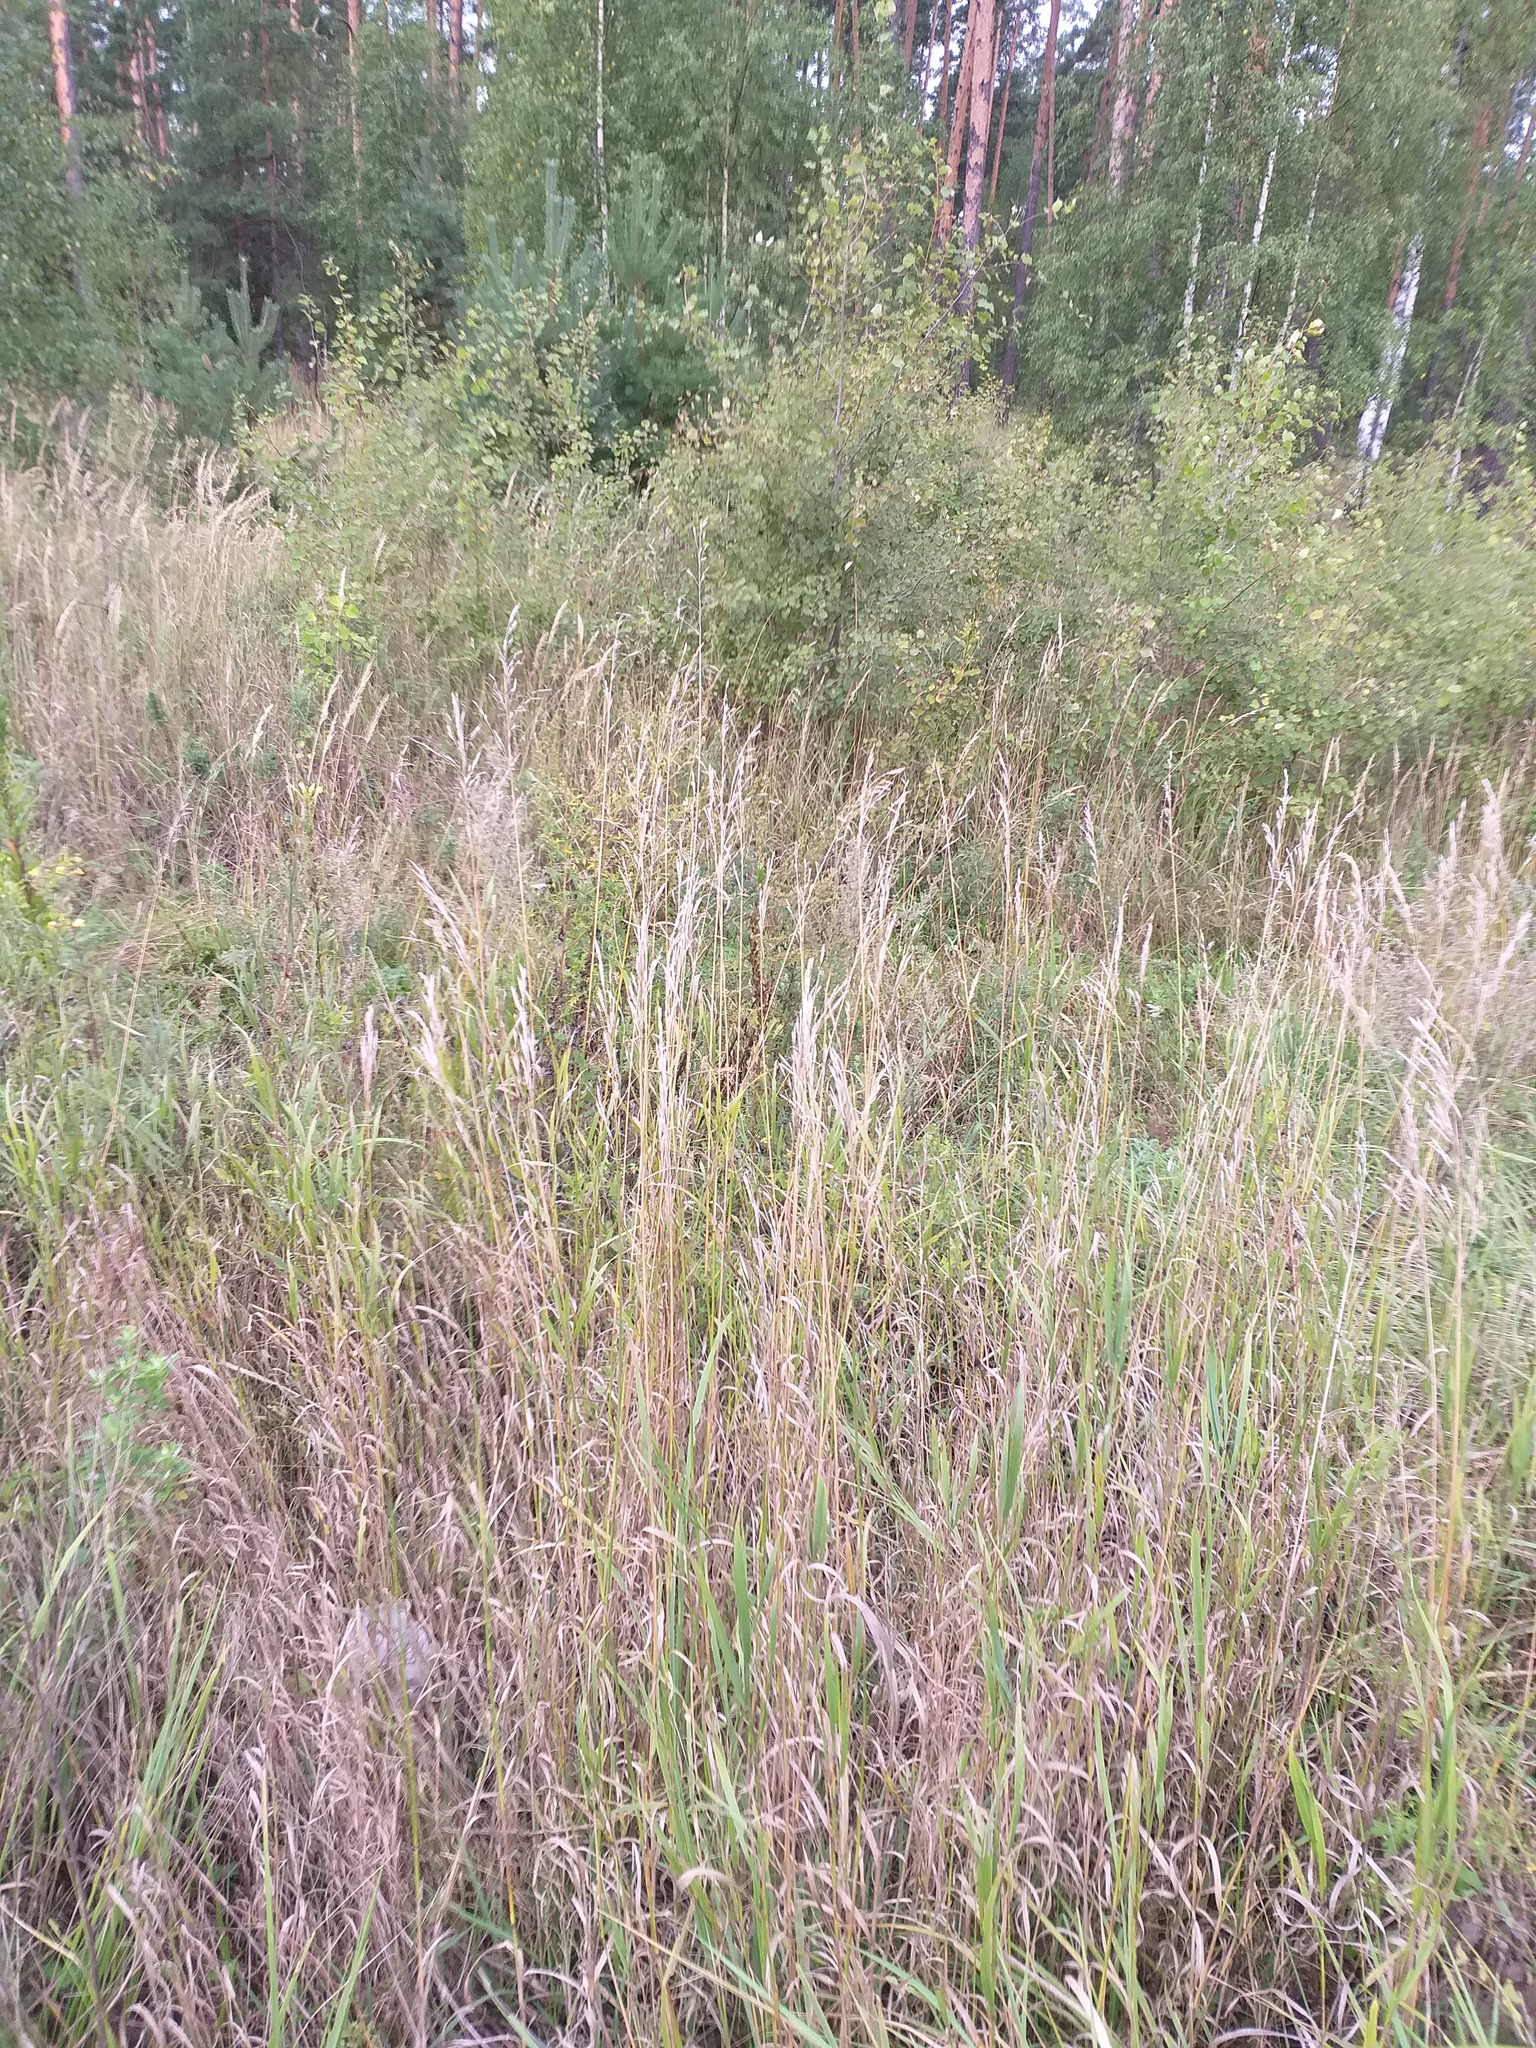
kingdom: Plantae
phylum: Tracheophyta
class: Liliopsida
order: Poales
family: Poaceae
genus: Bromus
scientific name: Bromus inermis
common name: Smooth brome
